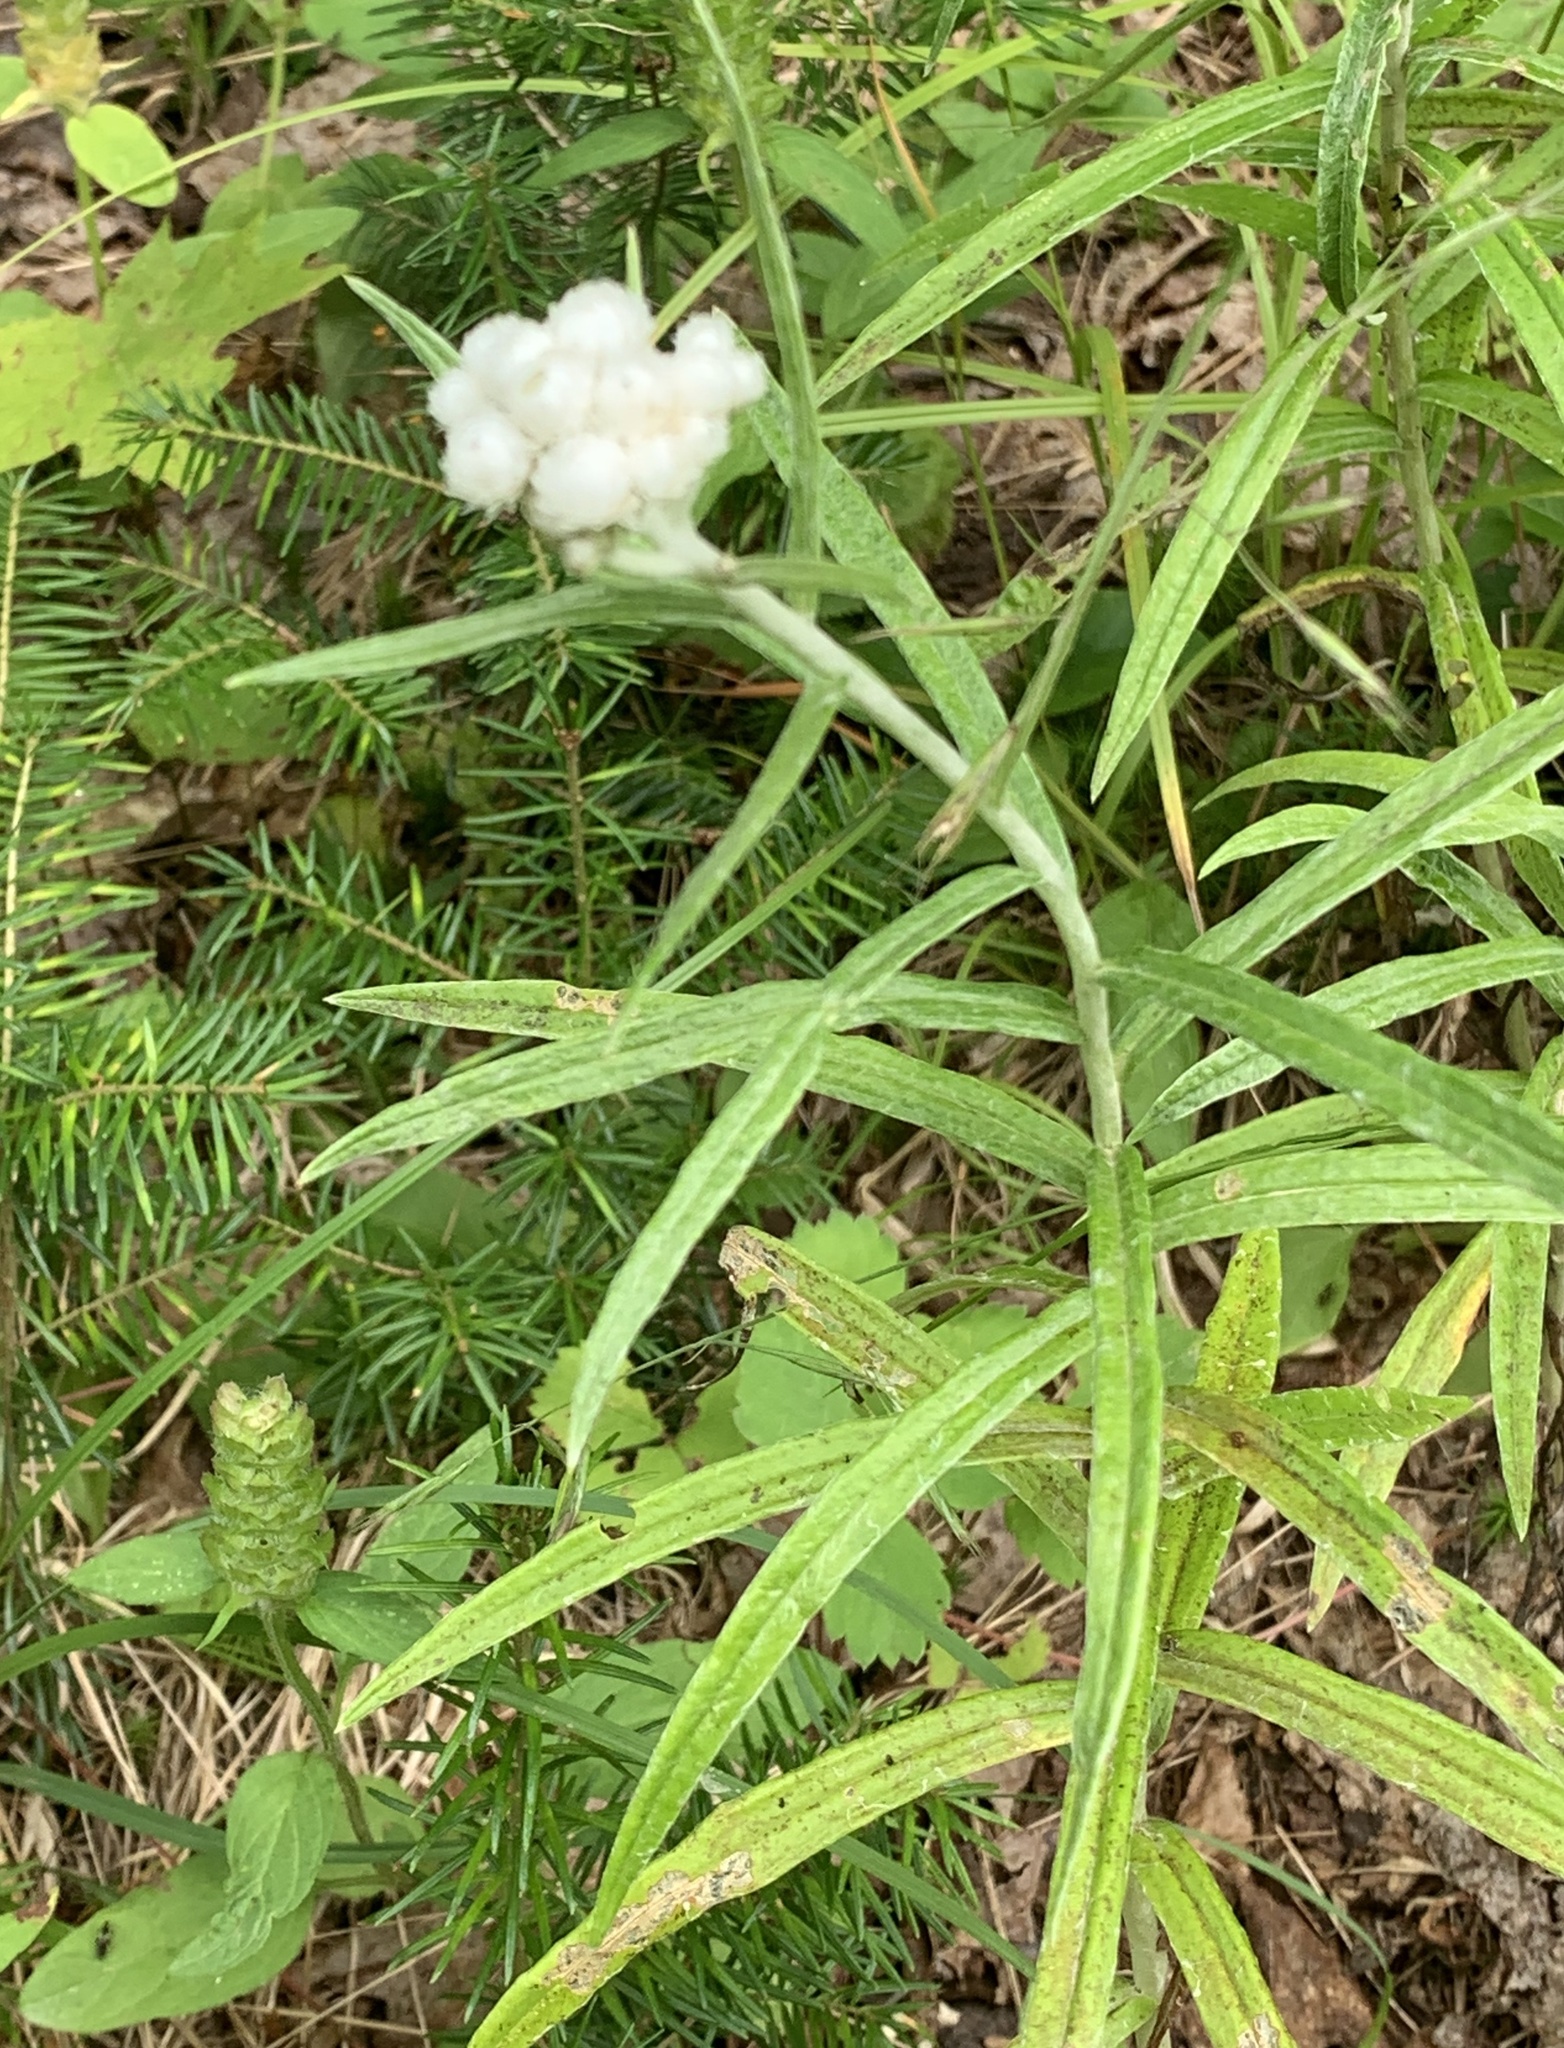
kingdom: Plantae
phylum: Tracheophyta
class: Magnoliopsida
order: Asterales
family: Asteraceae
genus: Anaphalis
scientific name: Anaphalis margaritacea
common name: Pearly everlasting
